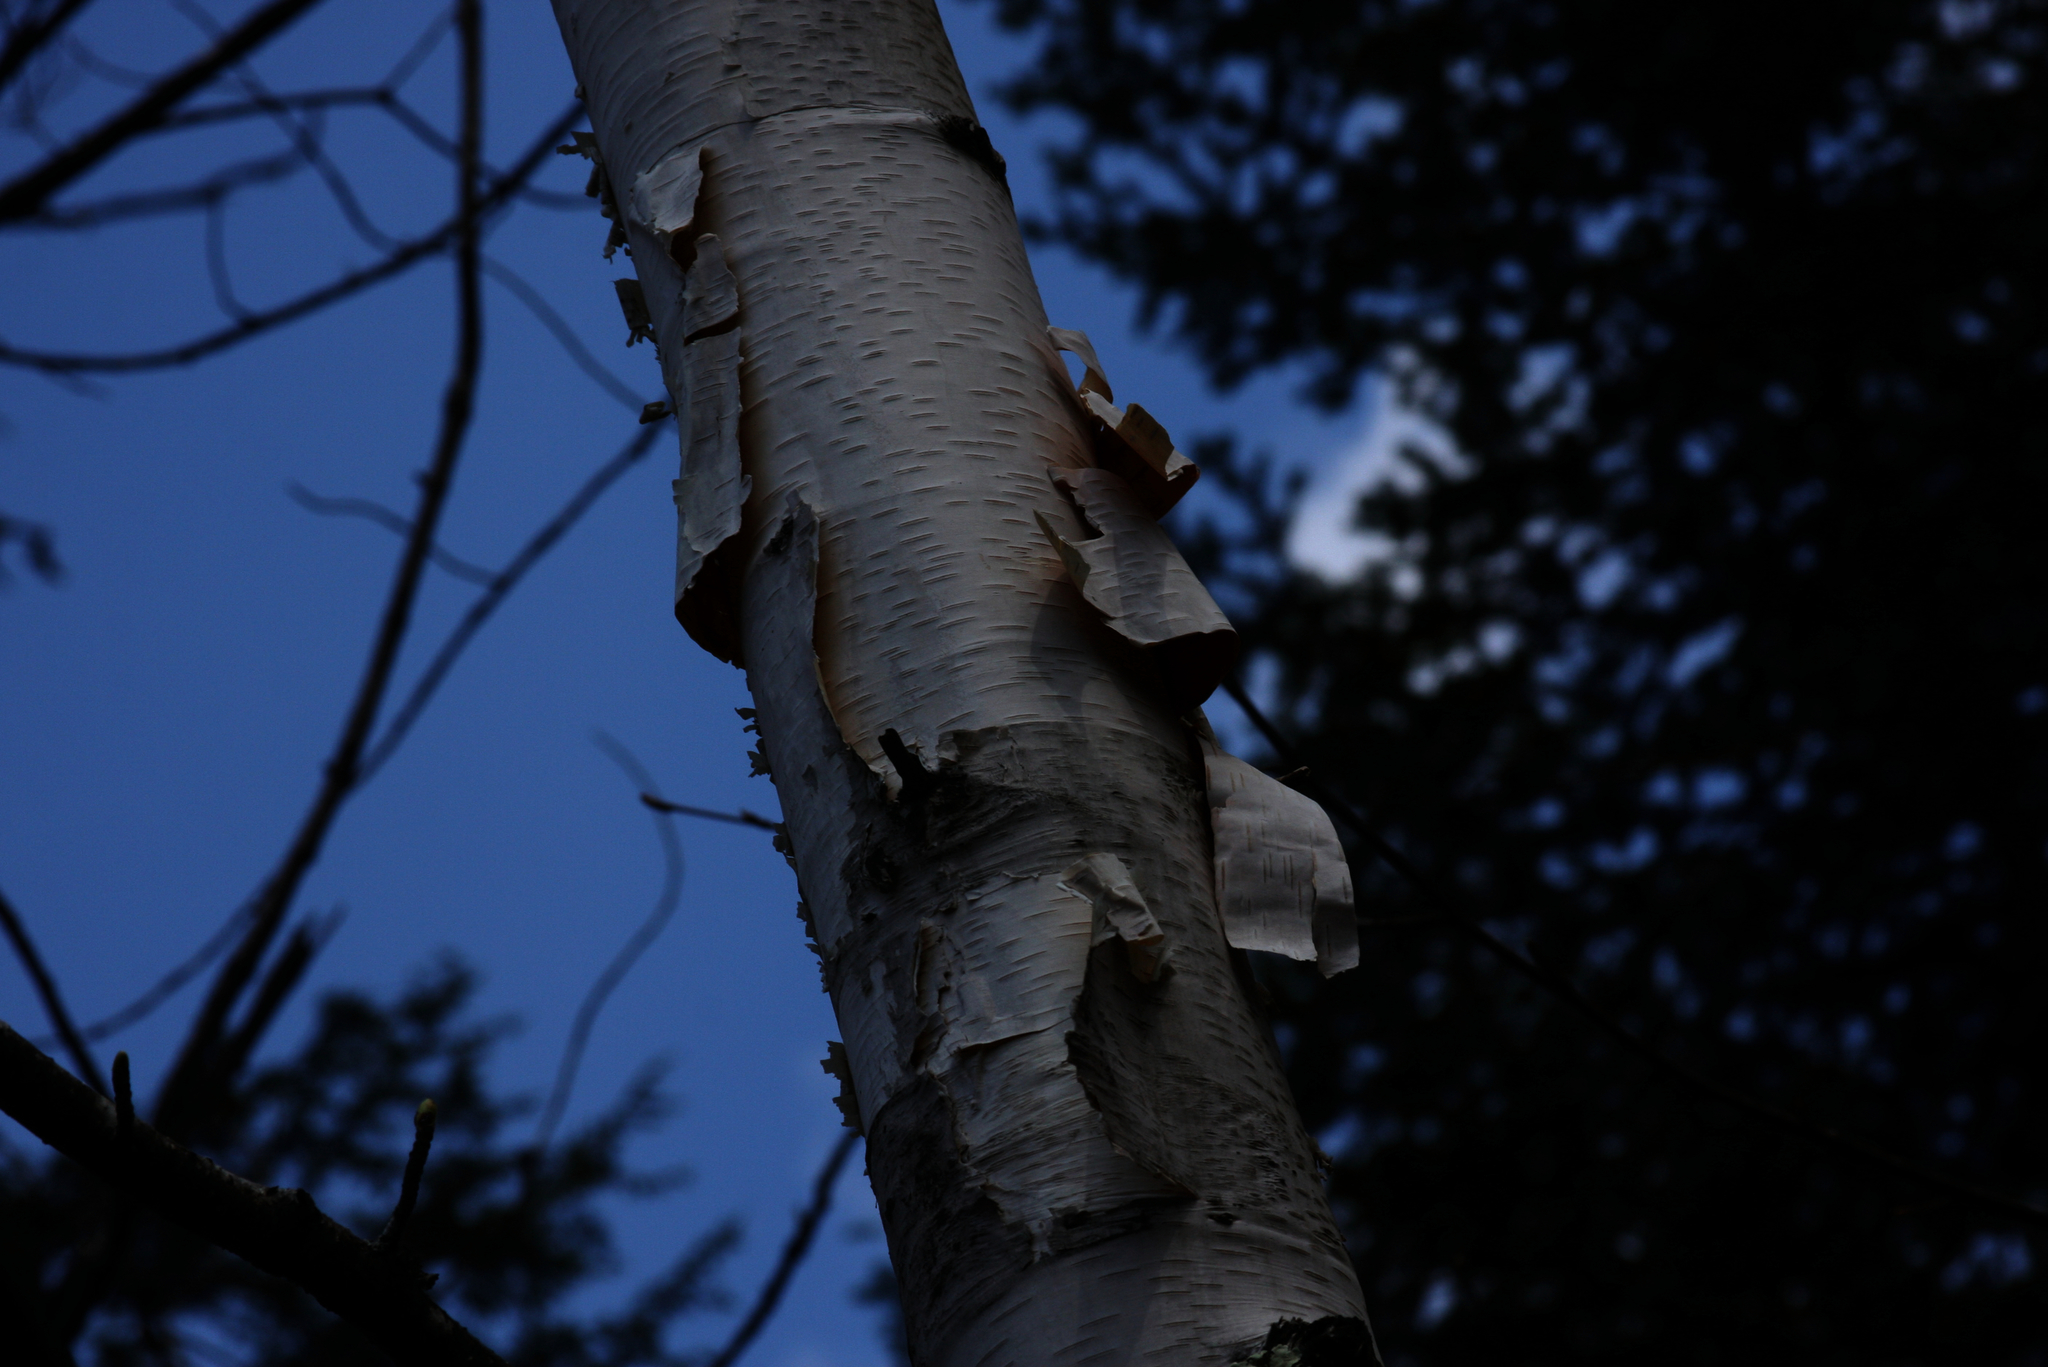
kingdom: Plantae
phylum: Tracheophyta
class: Magnoliopsida
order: Fagales
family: Betulaceae
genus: Betula
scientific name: Betula papyrifera
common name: Paper birch
